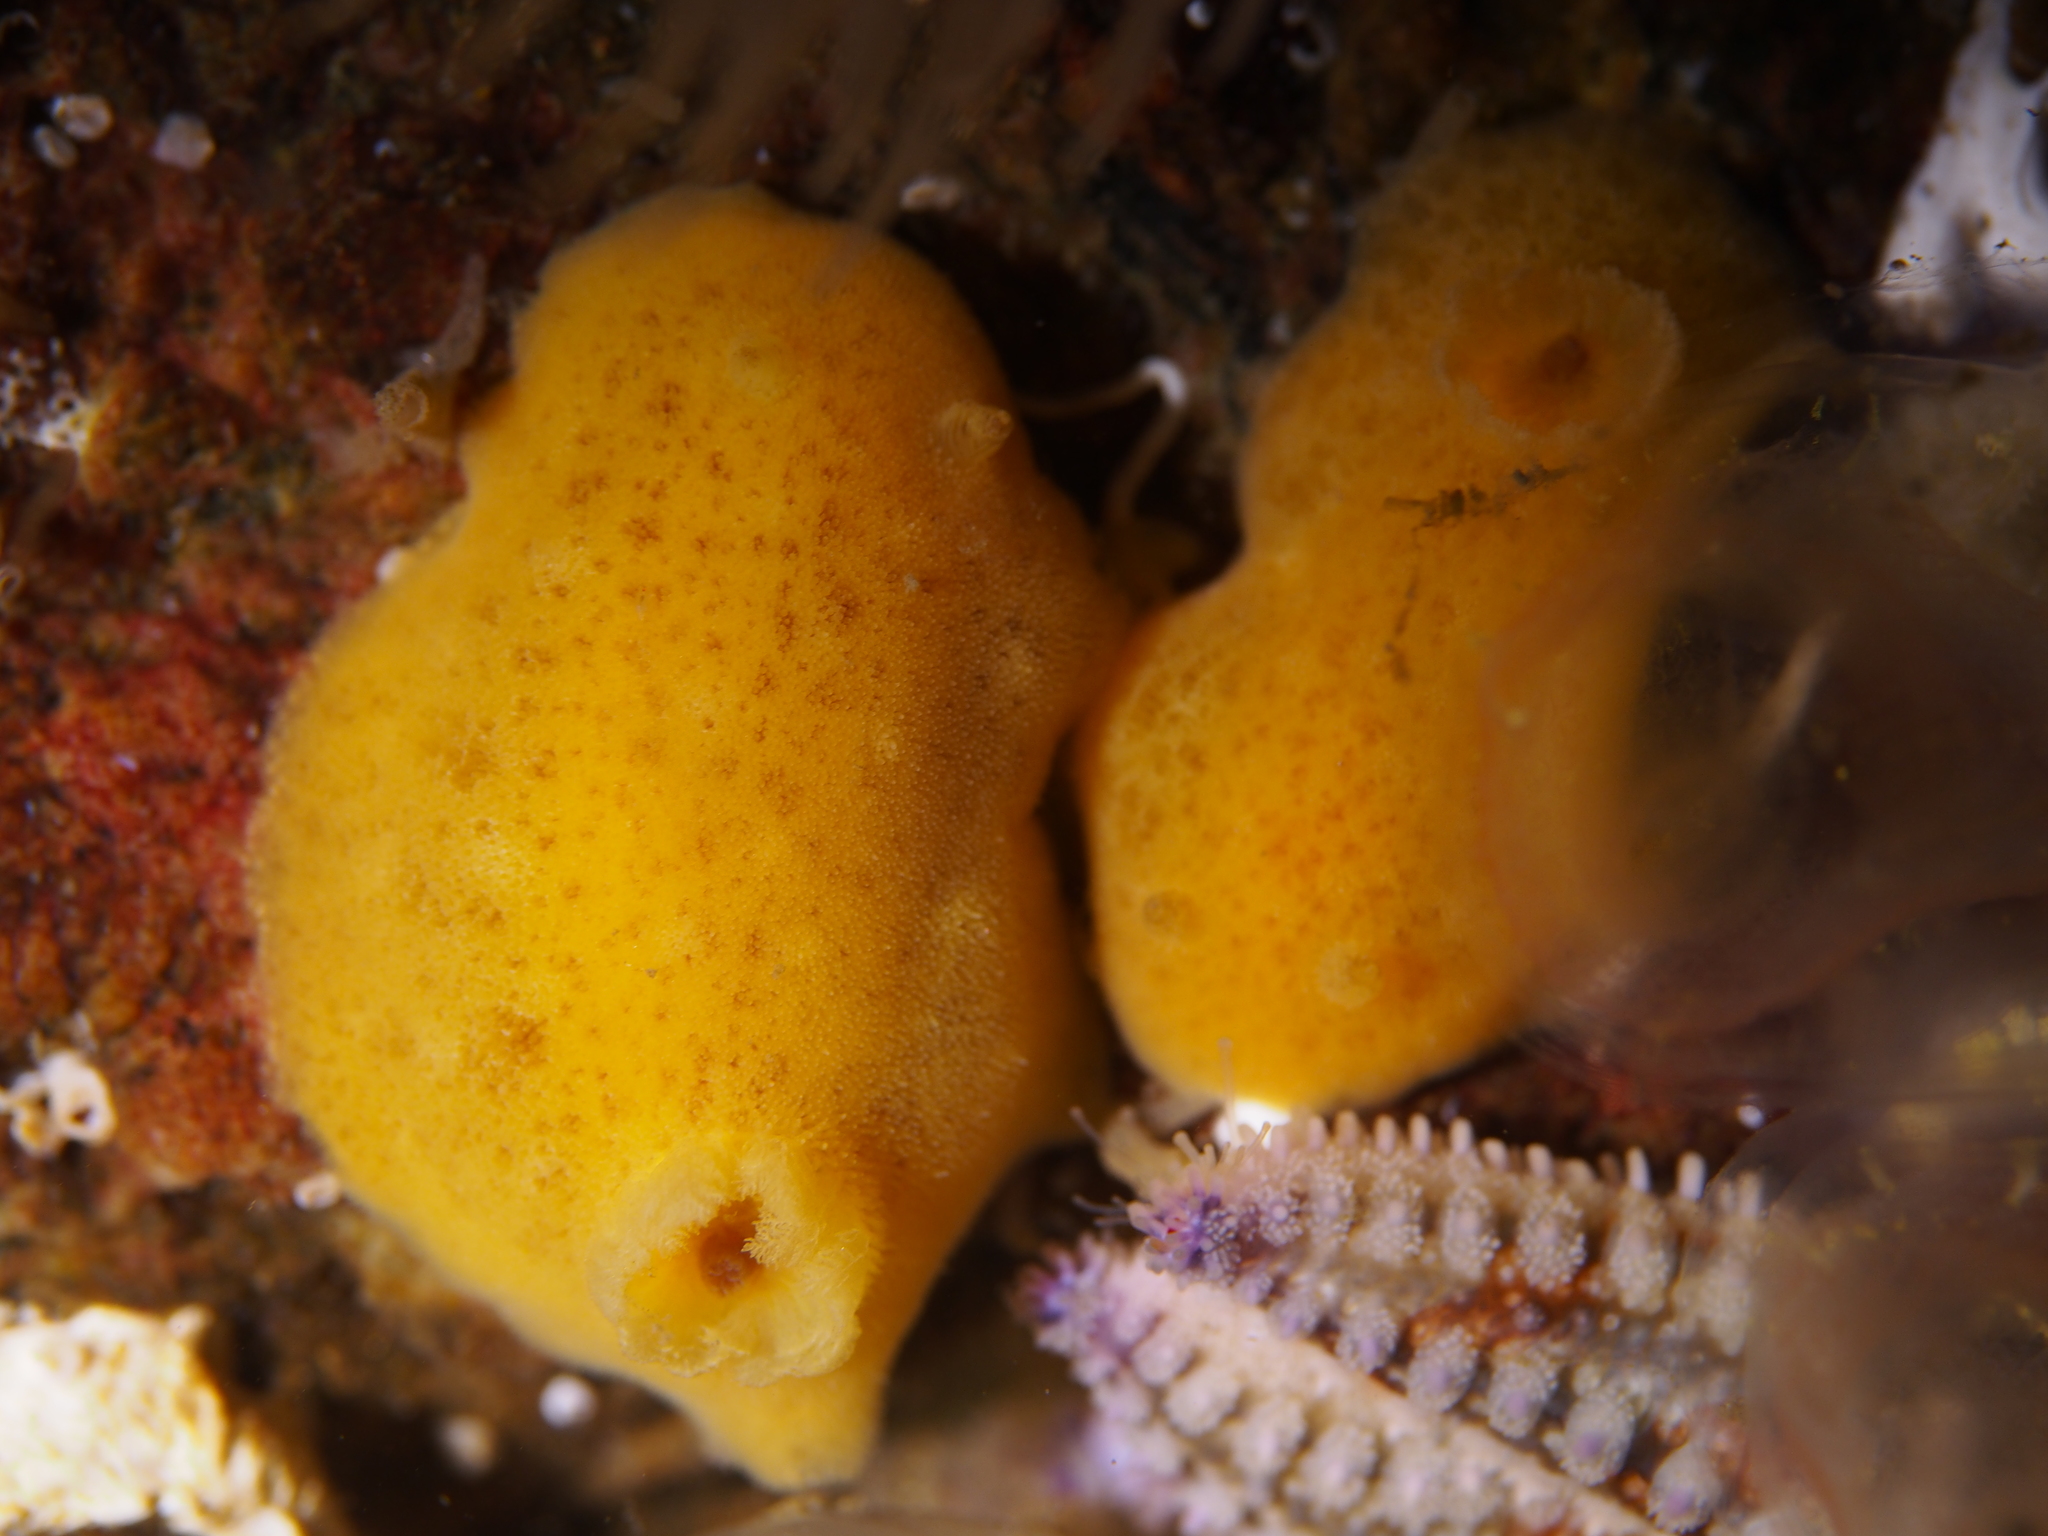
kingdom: Animalia
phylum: Mollusca
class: Gastropoda
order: Nudibranchia
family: Discodorididae
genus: Jorunna
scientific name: Jorunna tomentosa
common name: Grey sea slug
